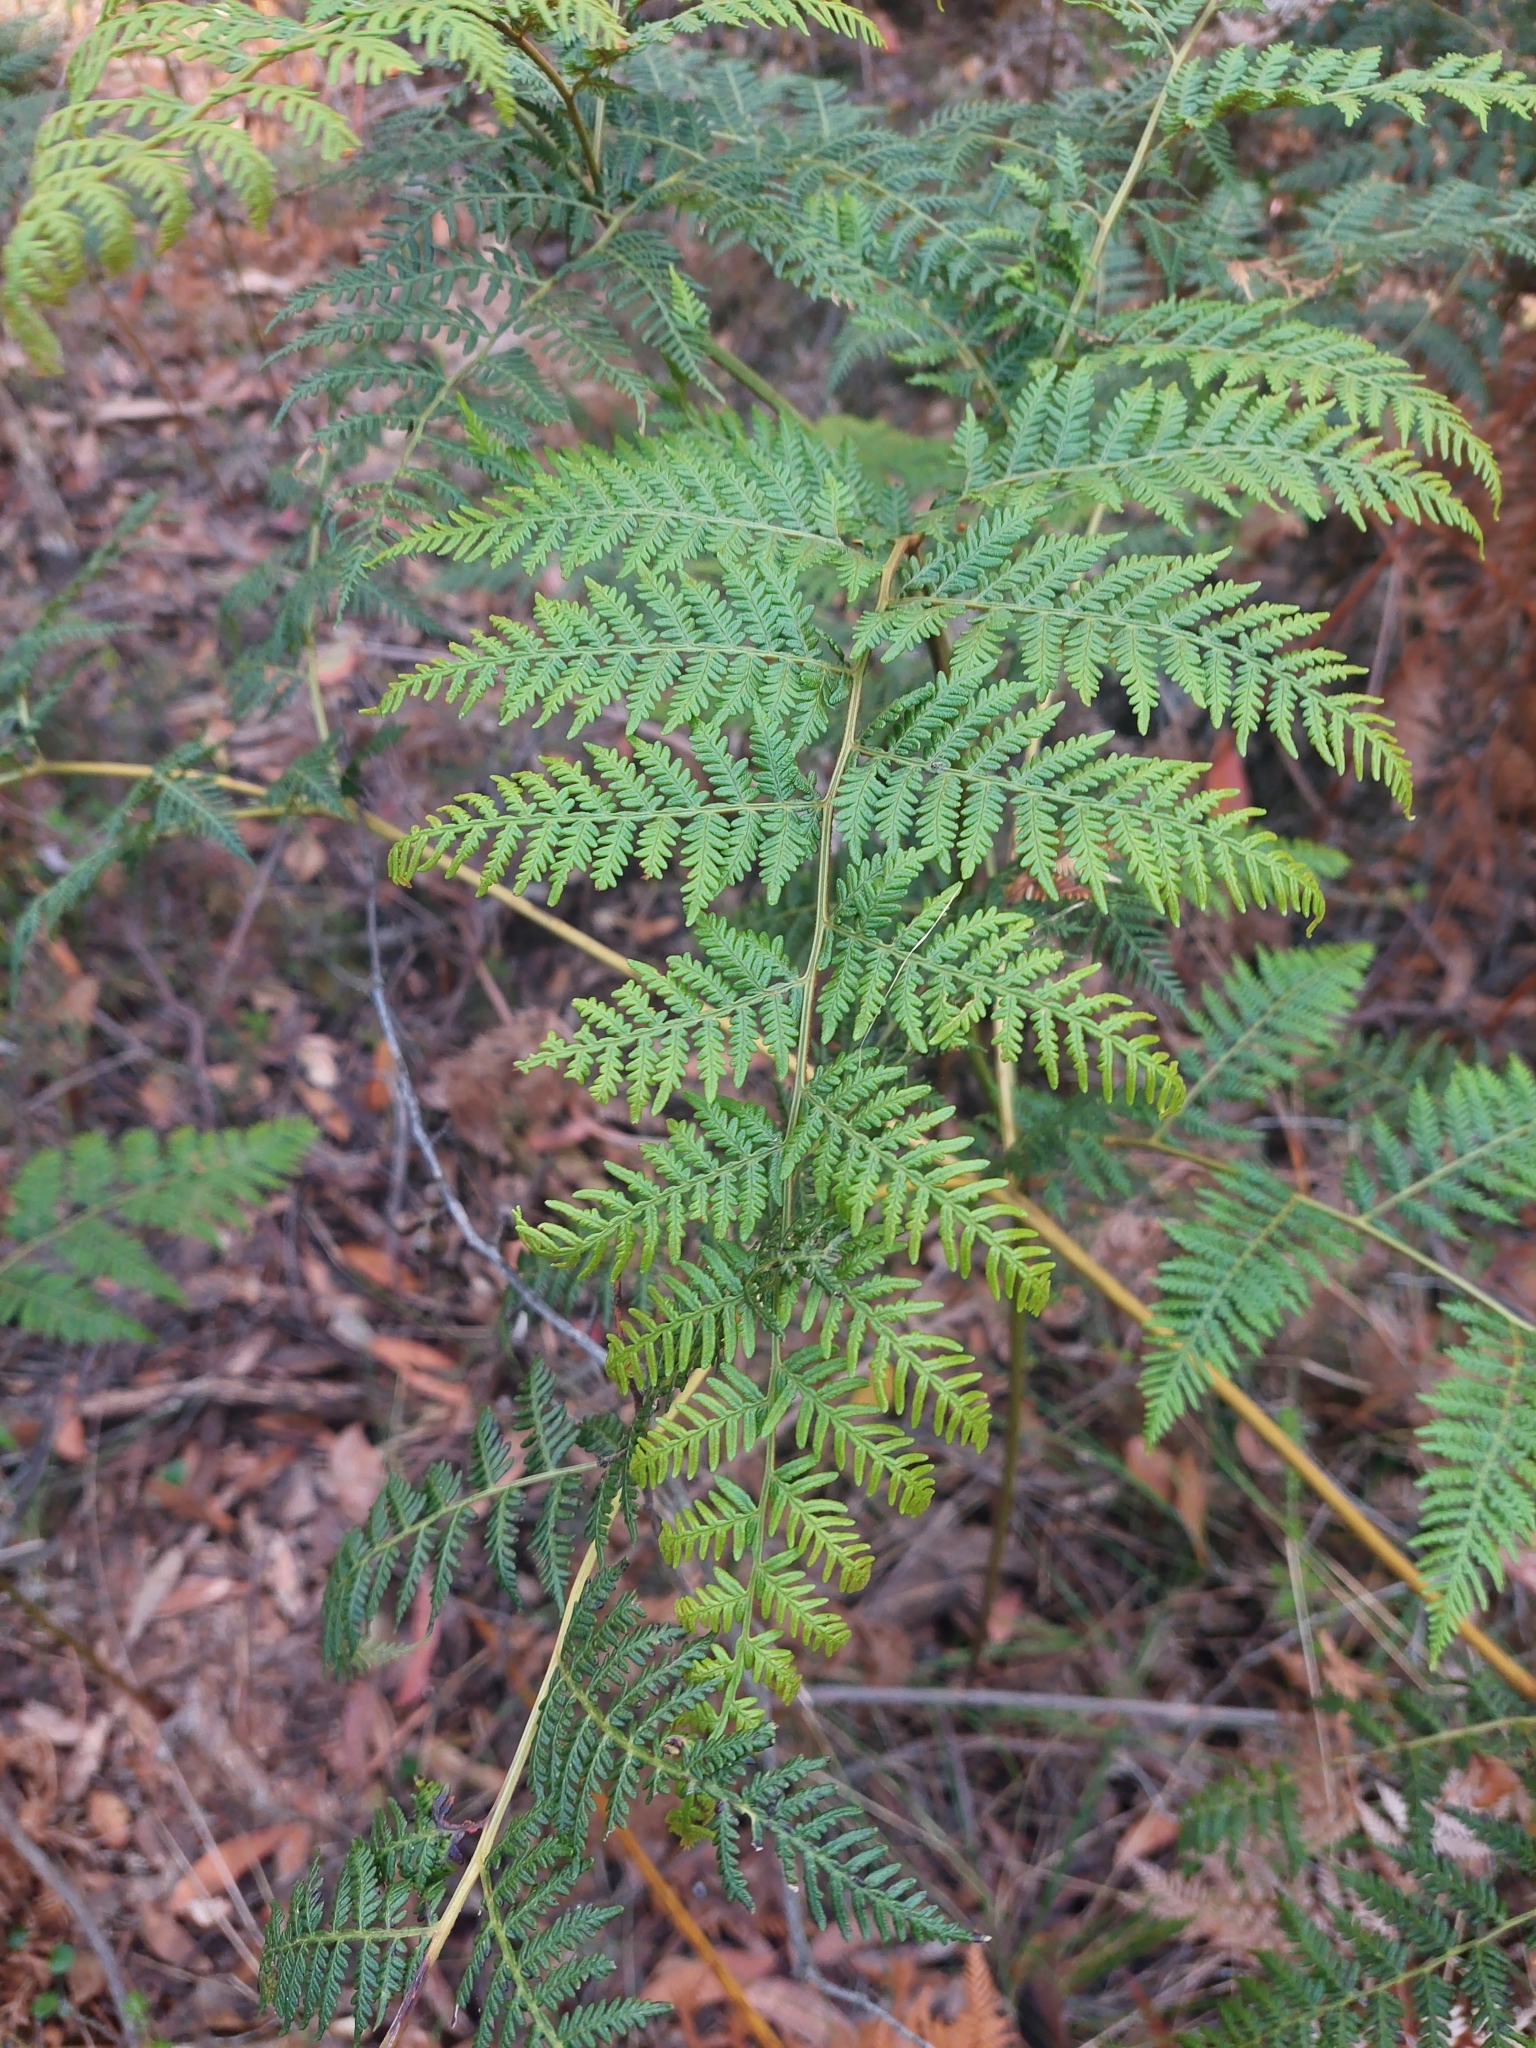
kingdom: Plantae
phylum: Tracheophyta
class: Polypodiopsida
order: Polypodiales
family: Dennstaedtiaceae
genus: Pteridium
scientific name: Pteridium esculentum
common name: Bracken fern
